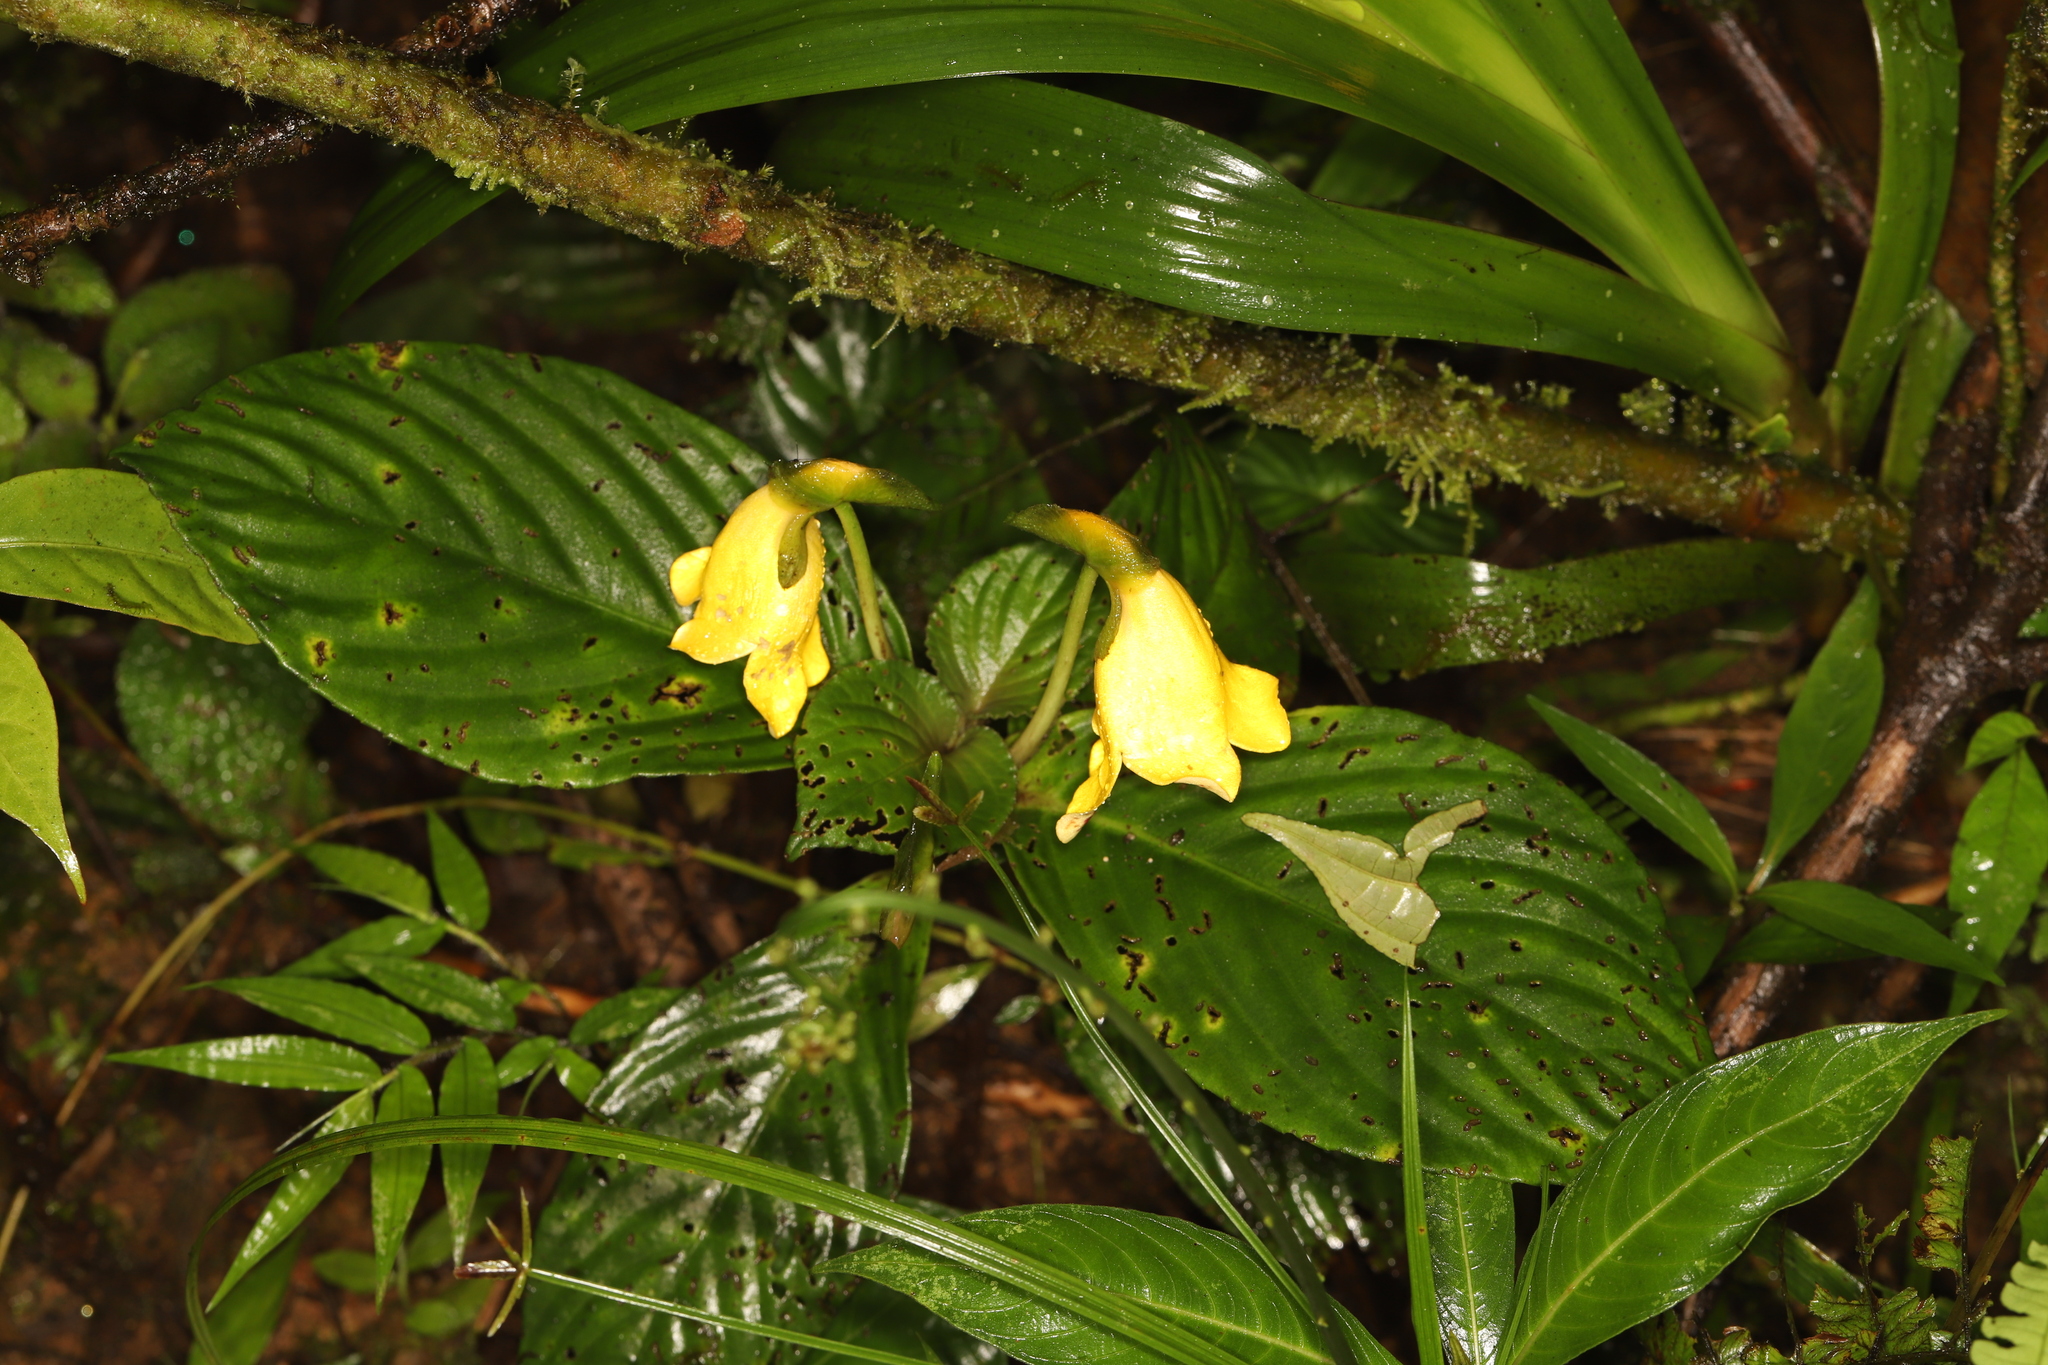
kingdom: Plantae
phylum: Tracheophyta
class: Magnoliopsida
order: Lamiales
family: Gesneriaceae
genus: Gasteranthus
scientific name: Gasteranthus delphinioides
